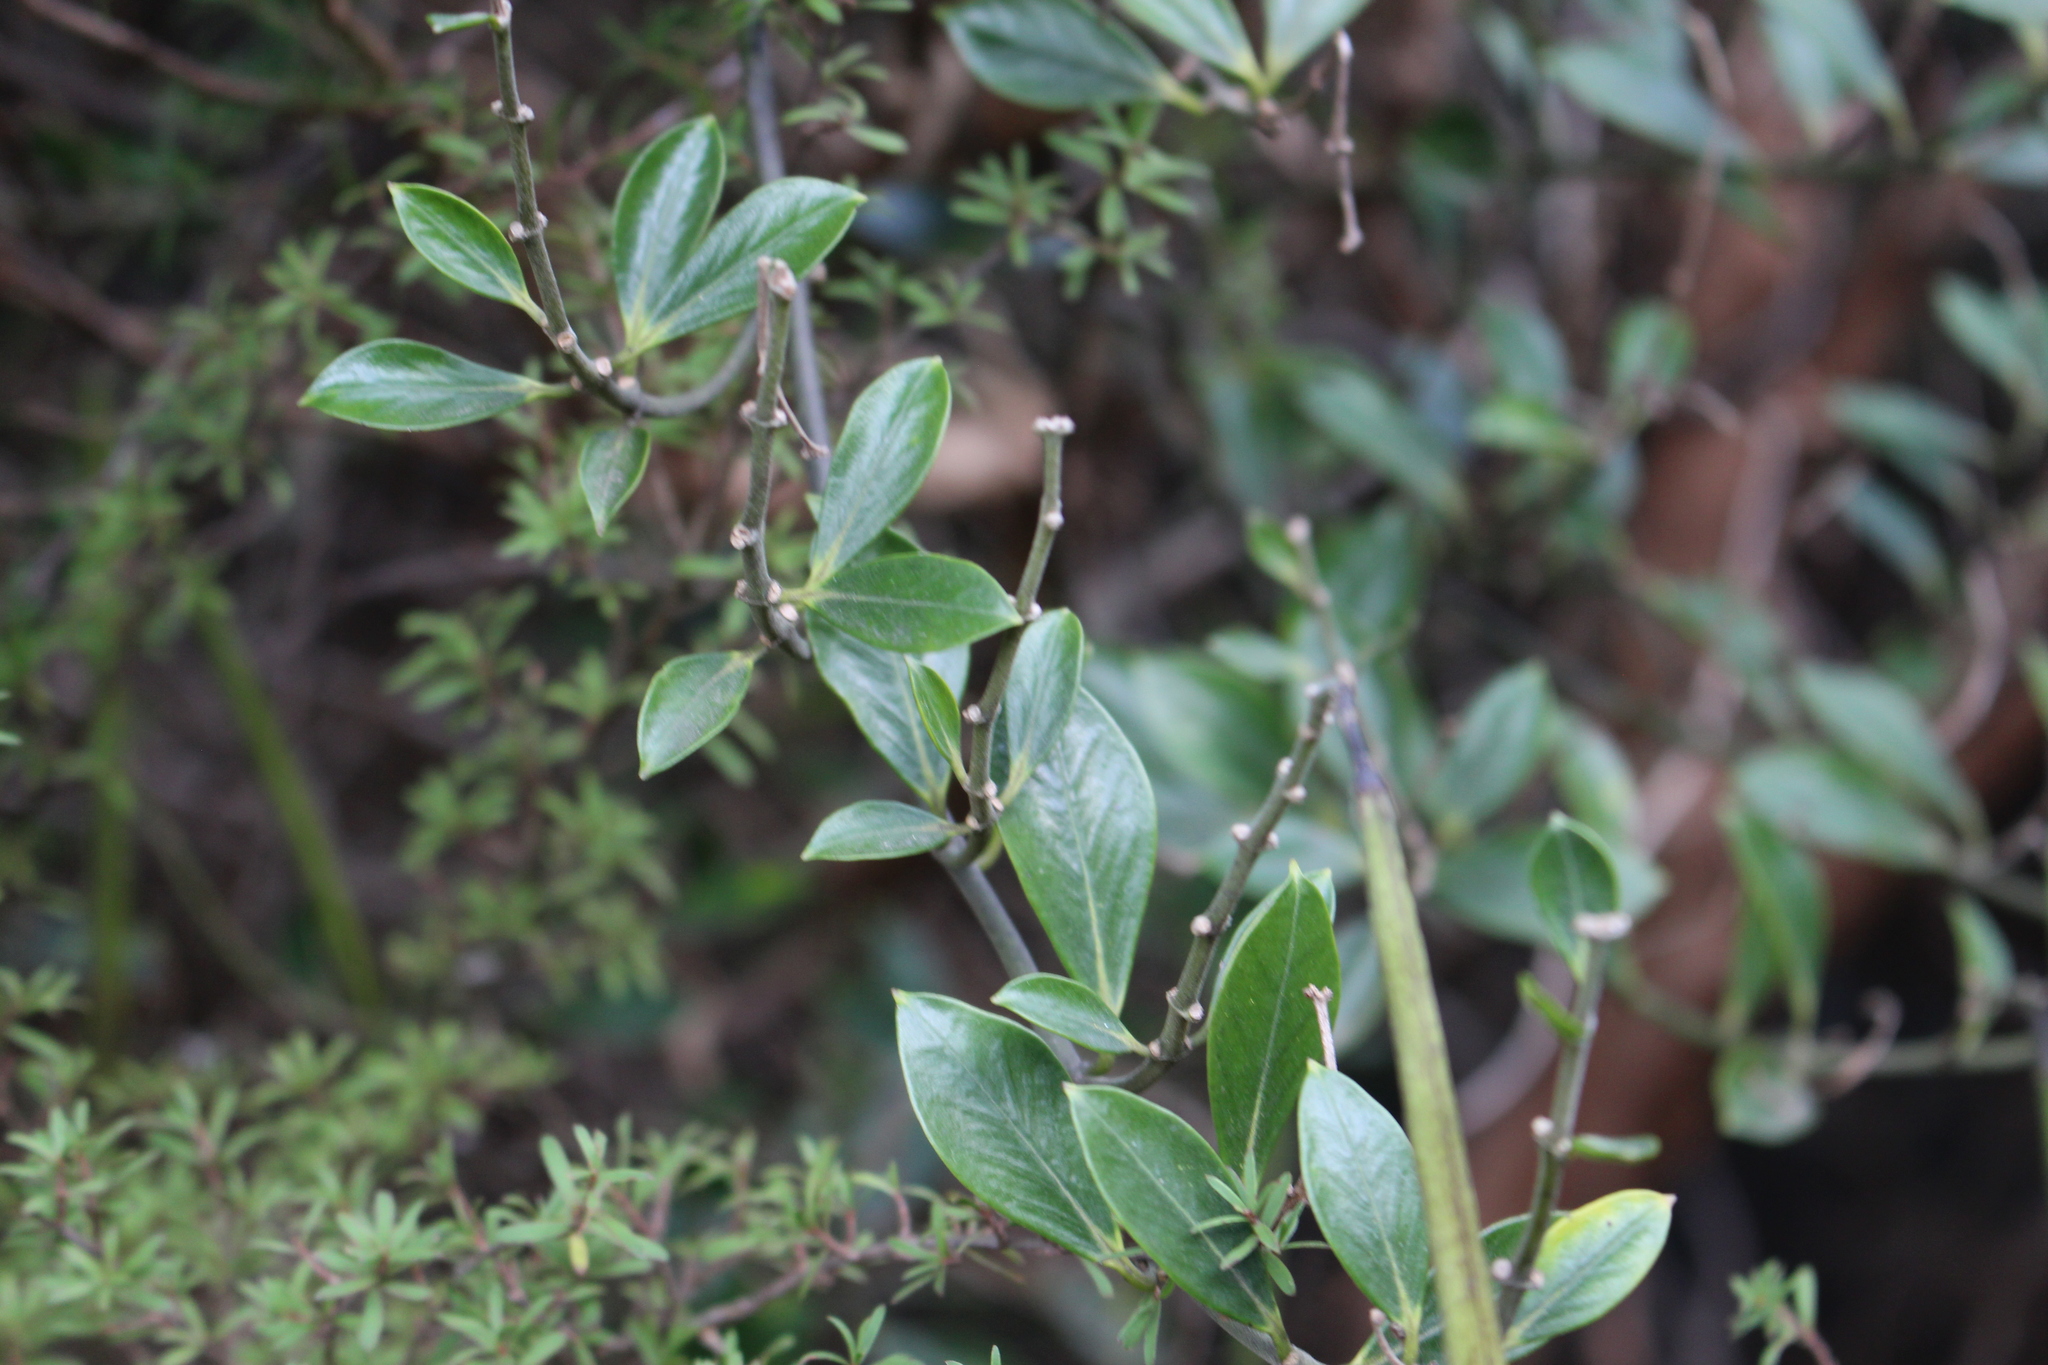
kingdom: Plantae
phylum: Tracheophyta
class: Magnoliopsida
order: Gentianales
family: Apocynaceae
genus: Parsonsia
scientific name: Parsonsia heterophylla
